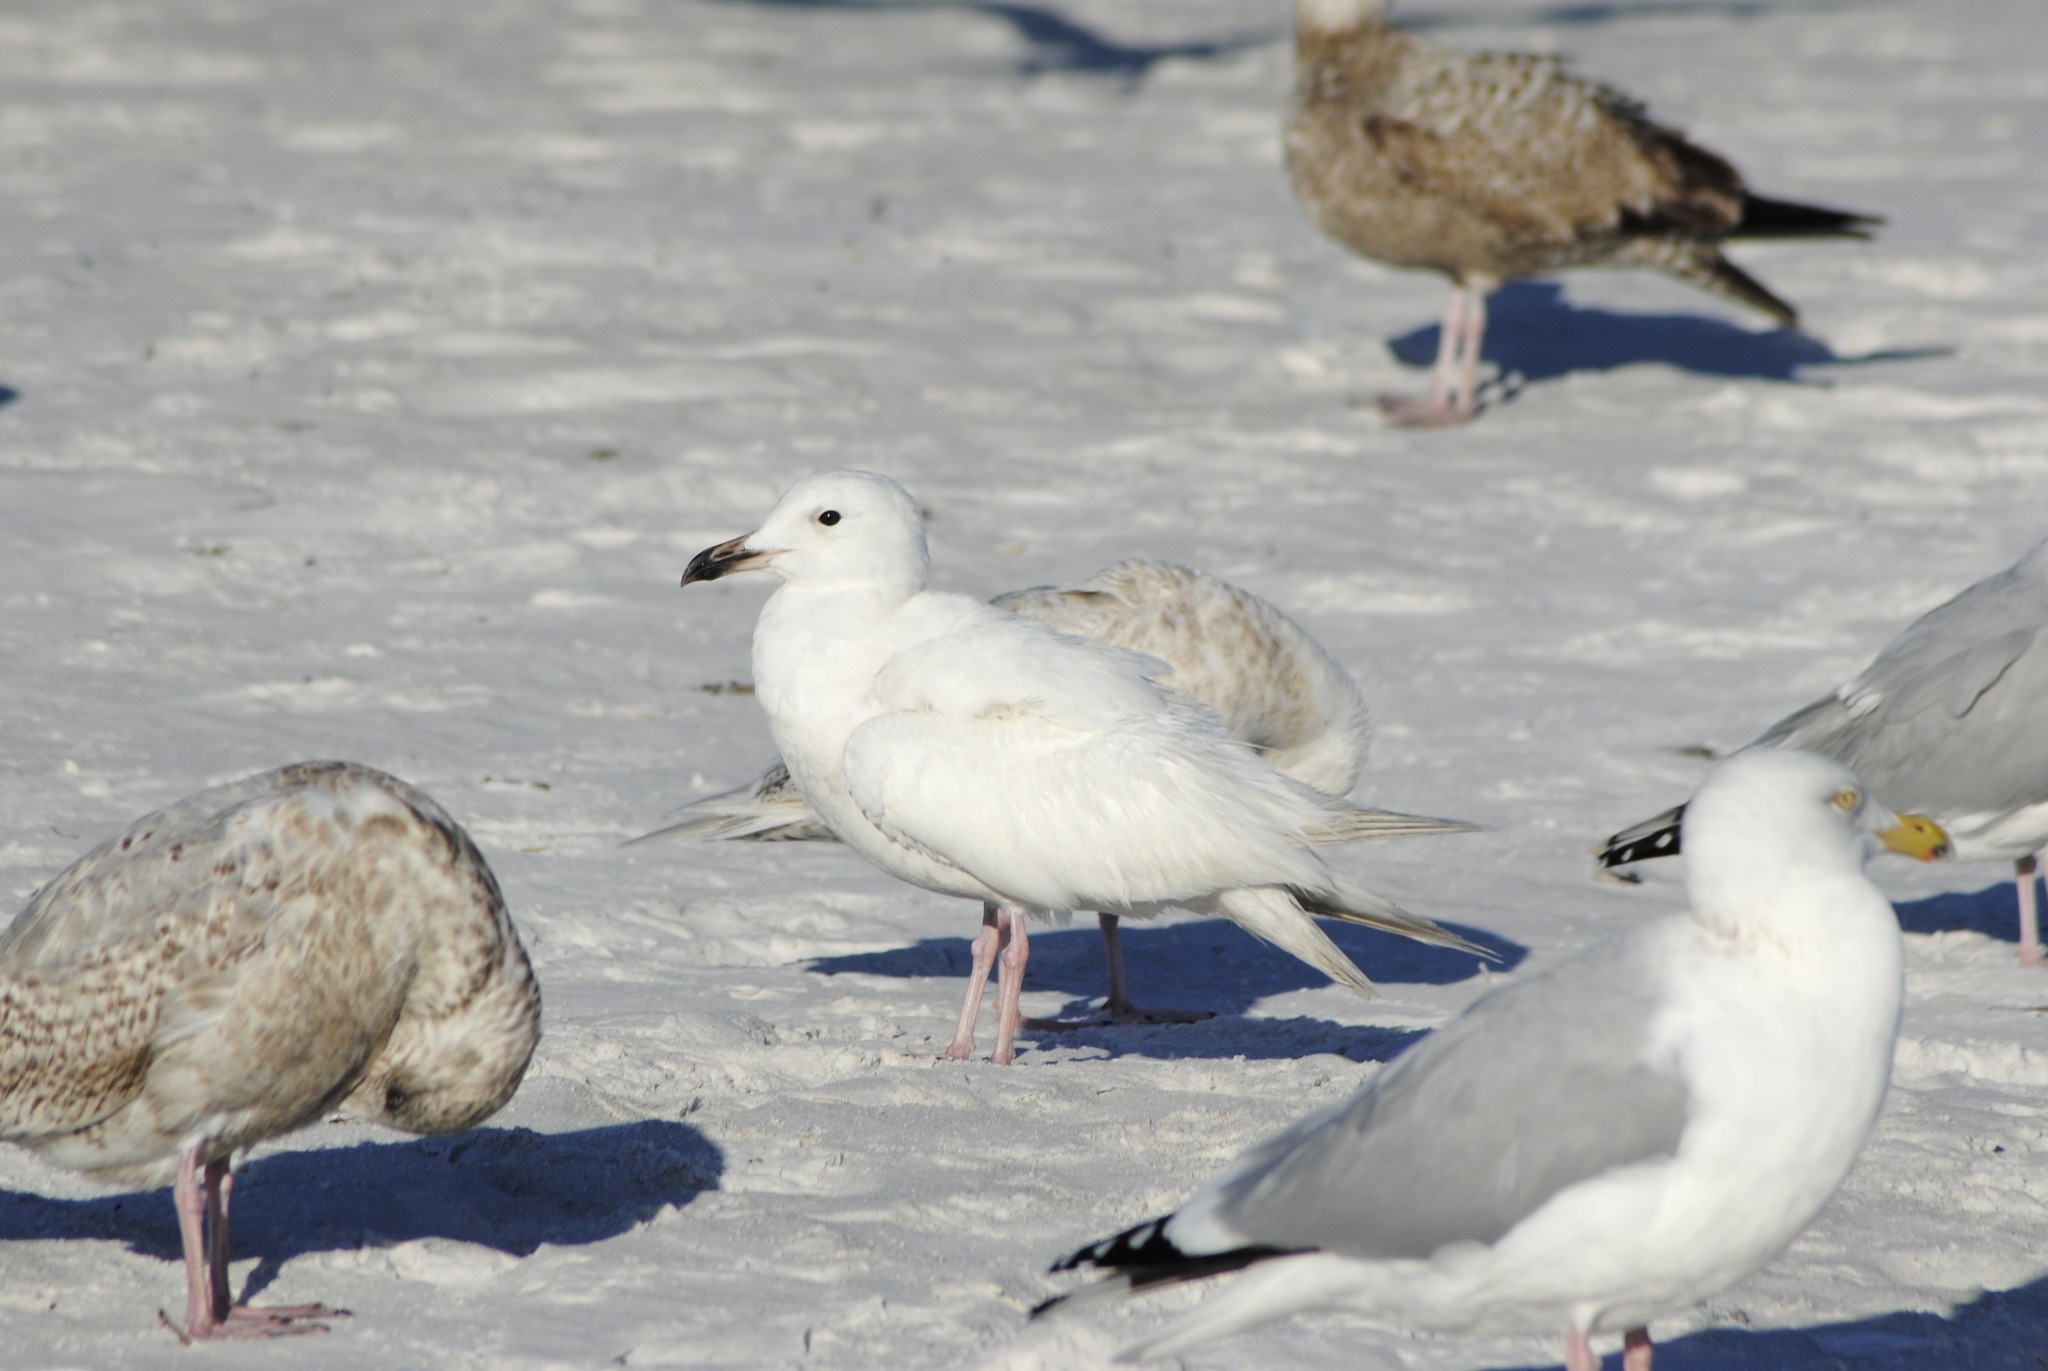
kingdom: Animalia
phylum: Chordata
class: Aves
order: Charadriiformes
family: Laridae
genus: Larus
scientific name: Larus
